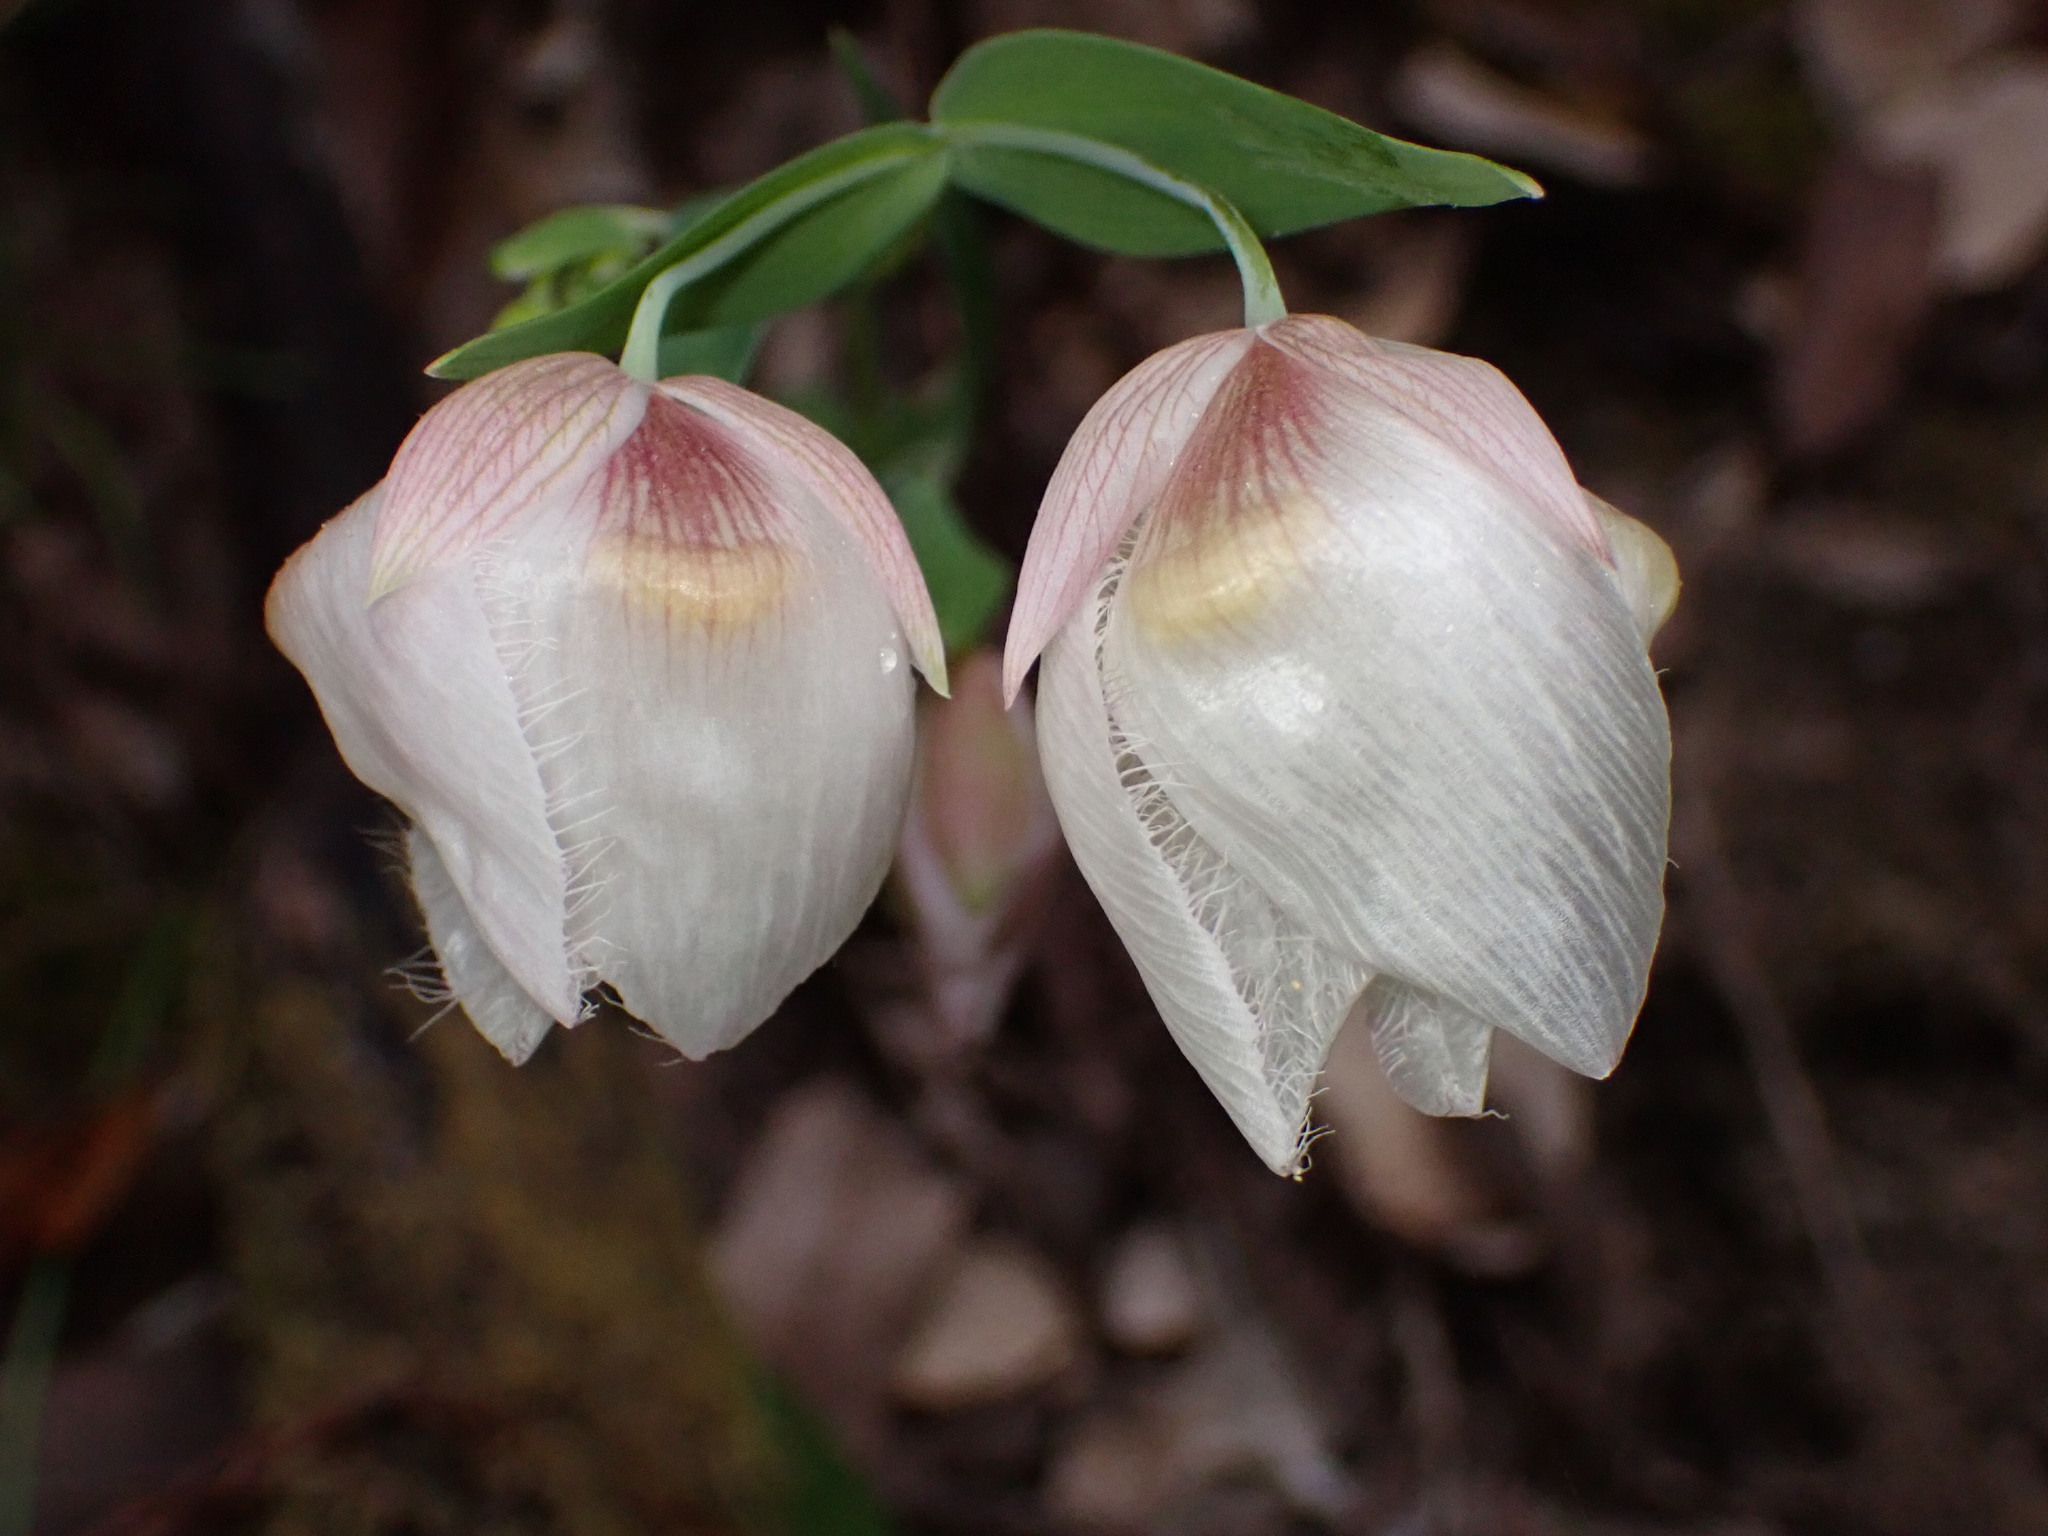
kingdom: Plantae
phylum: Tracheophyta
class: Liliopsida
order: Liliales
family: Liliaceae
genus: Calochortus
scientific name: Calochortus albus
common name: Fairy-lantern
